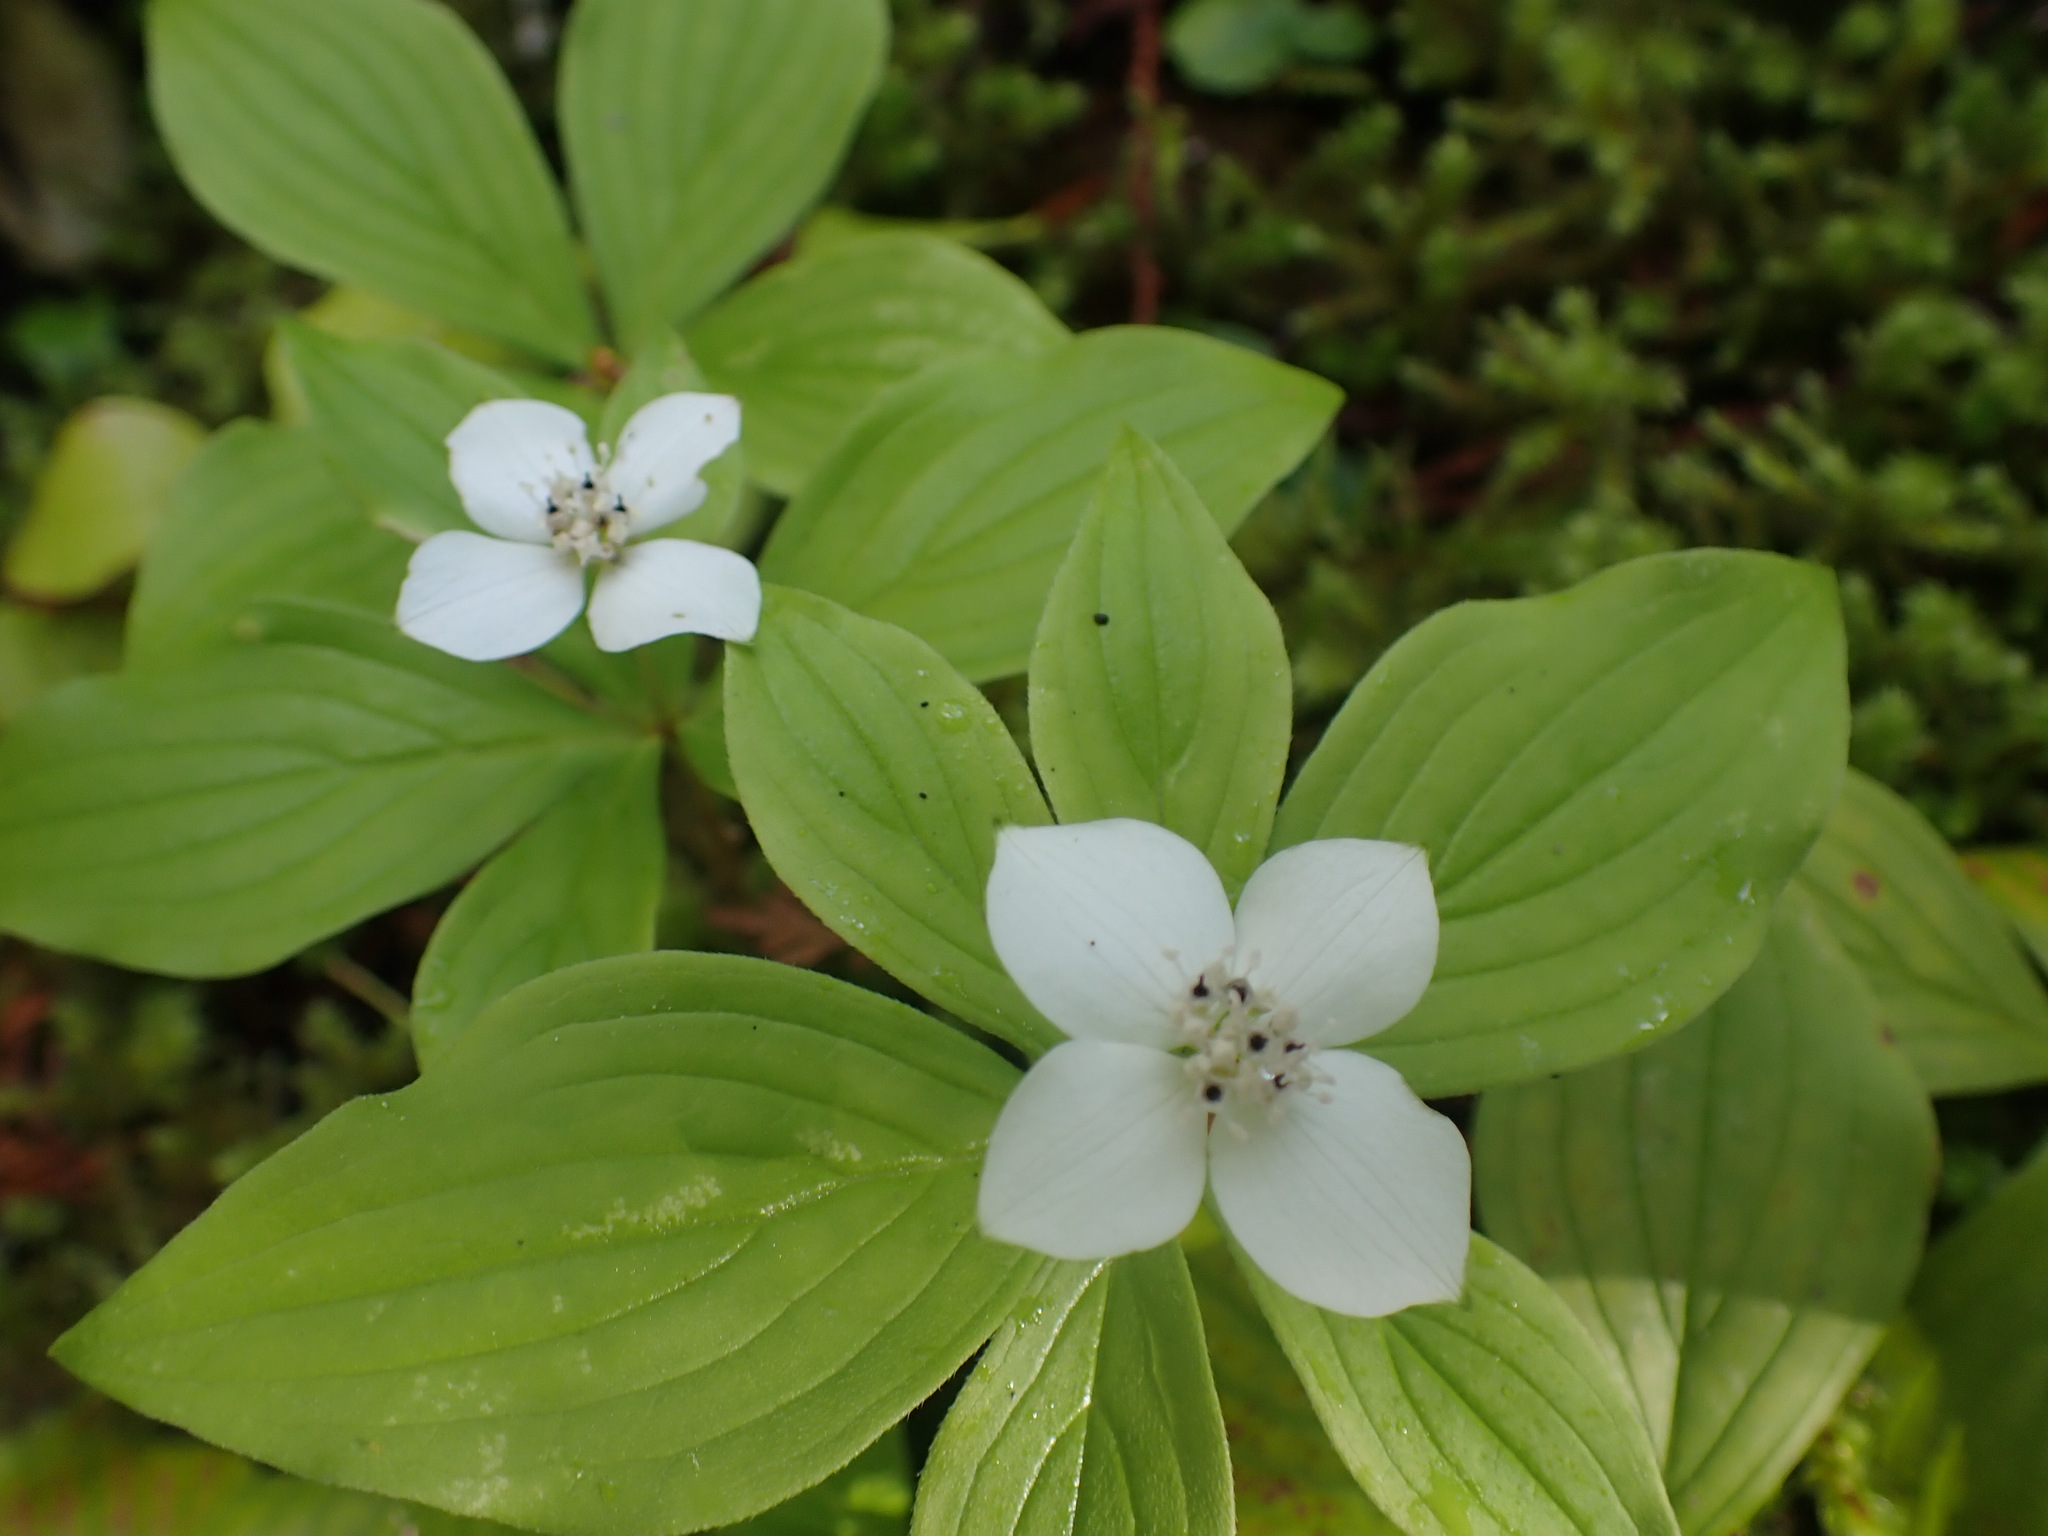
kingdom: Plantae
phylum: Tracheophyta
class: Magnoliopsida
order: Cornales
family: Cornaceae
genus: Cornus
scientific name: Cornus canadensis
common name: Creeping dogwood
